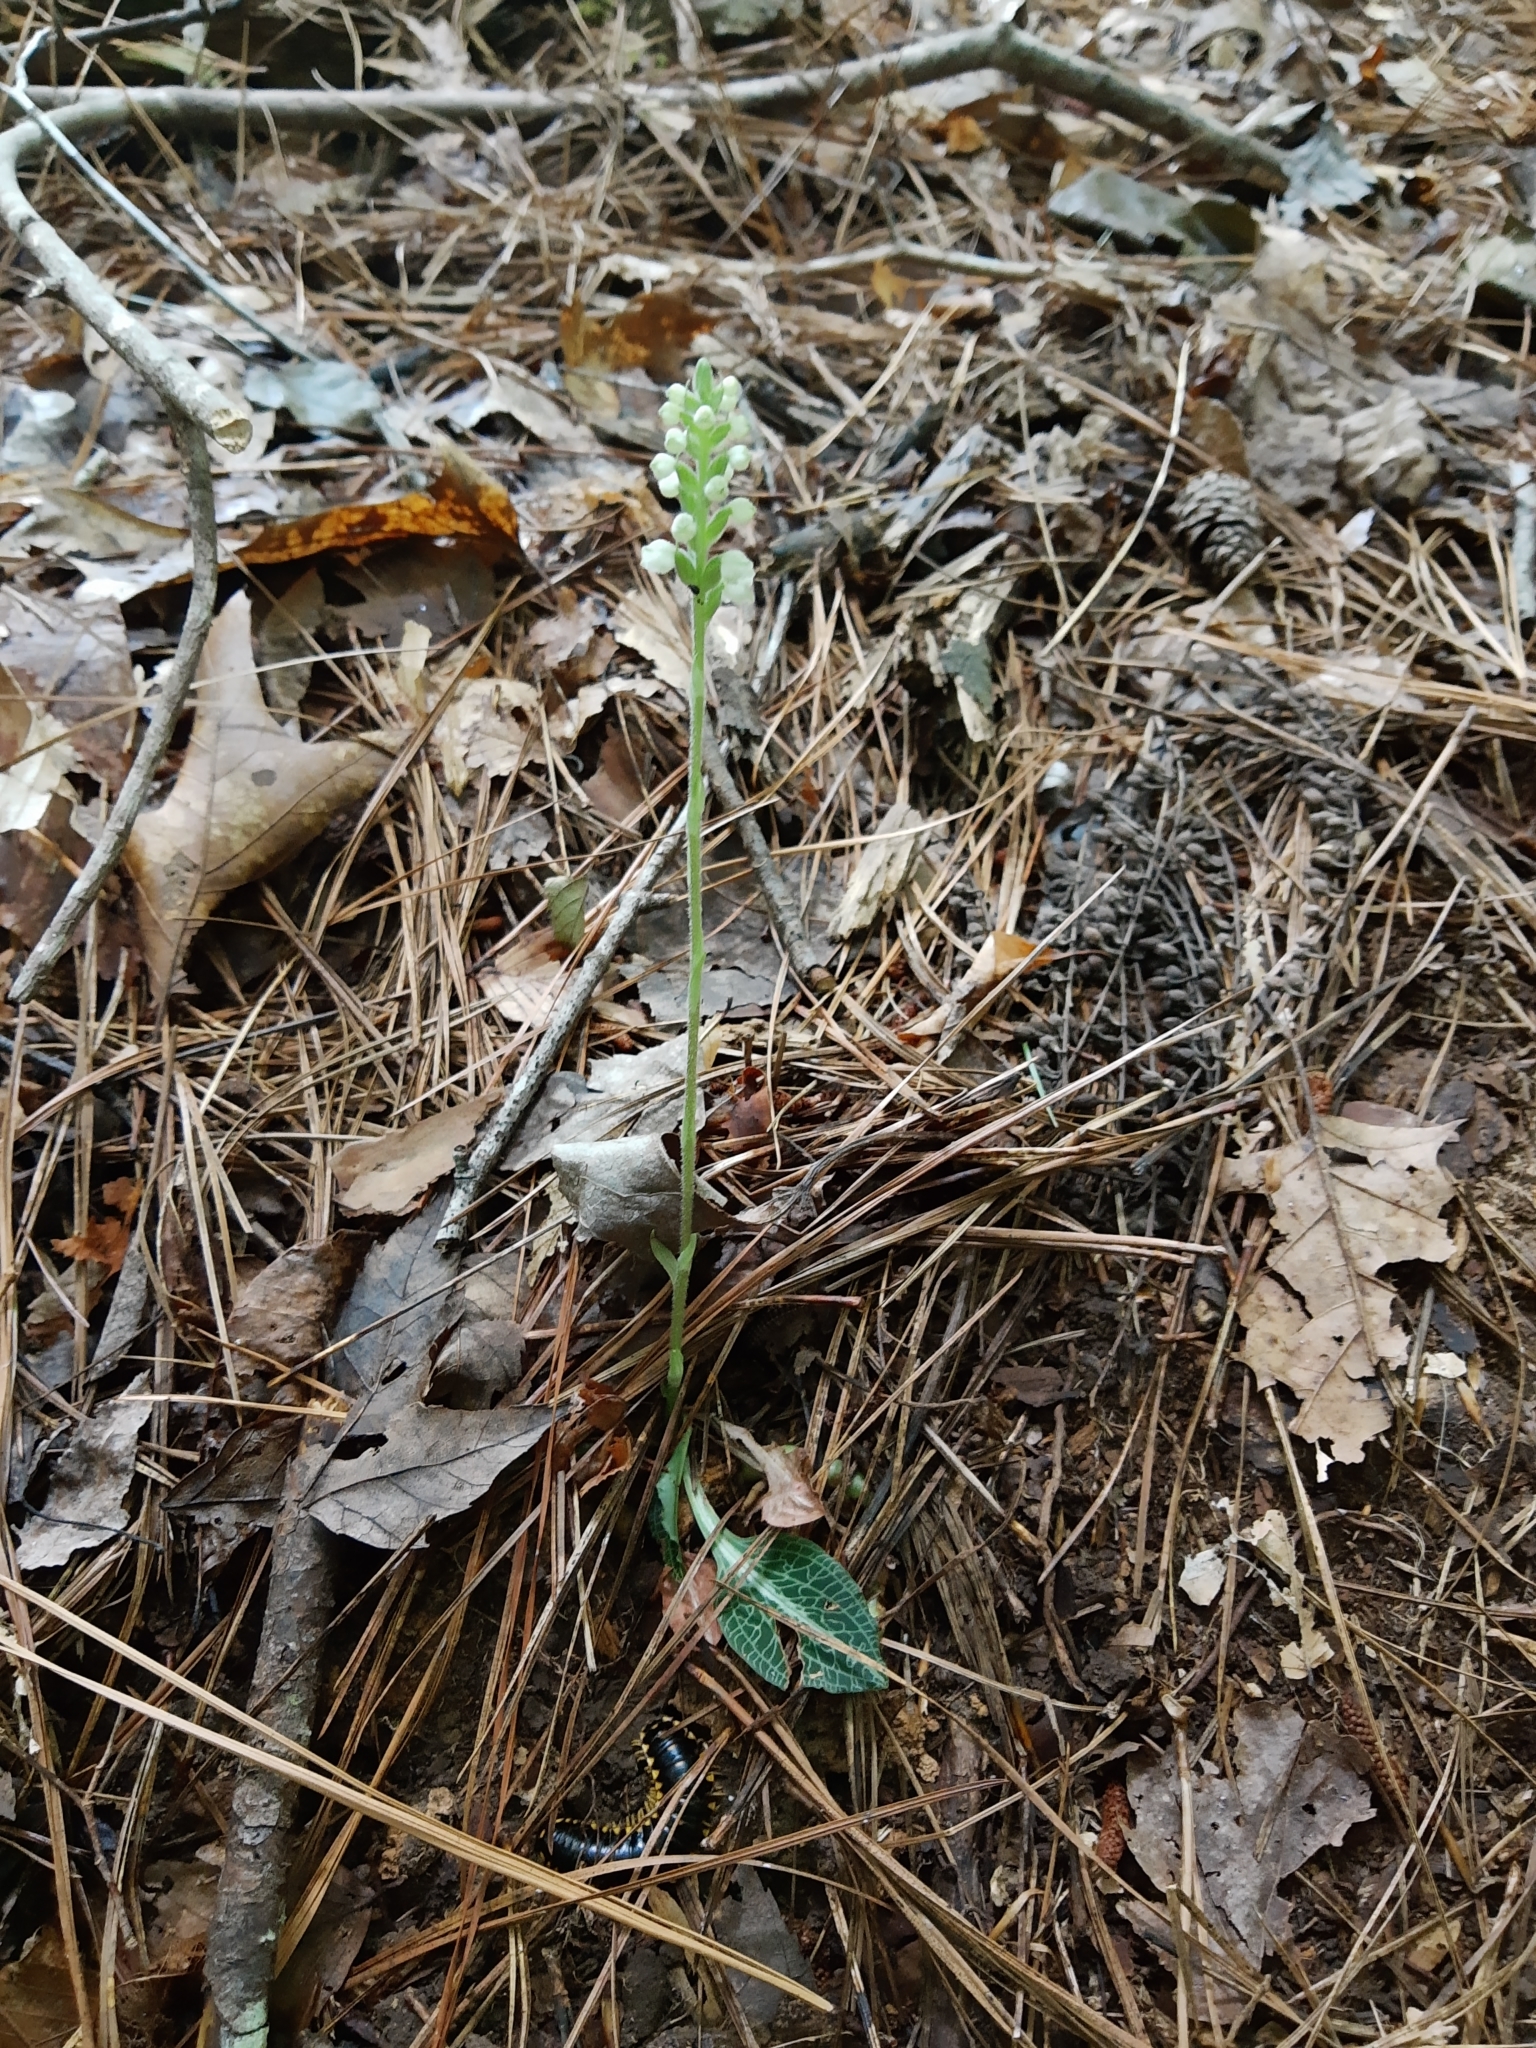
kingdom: Plantae
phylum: Tracheophyta
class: Liliopsida
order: Asparagales
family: Orchidaceae
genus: Goodyera
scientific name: Goodyera pubescens
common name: Downy rattlesnake-plantain
